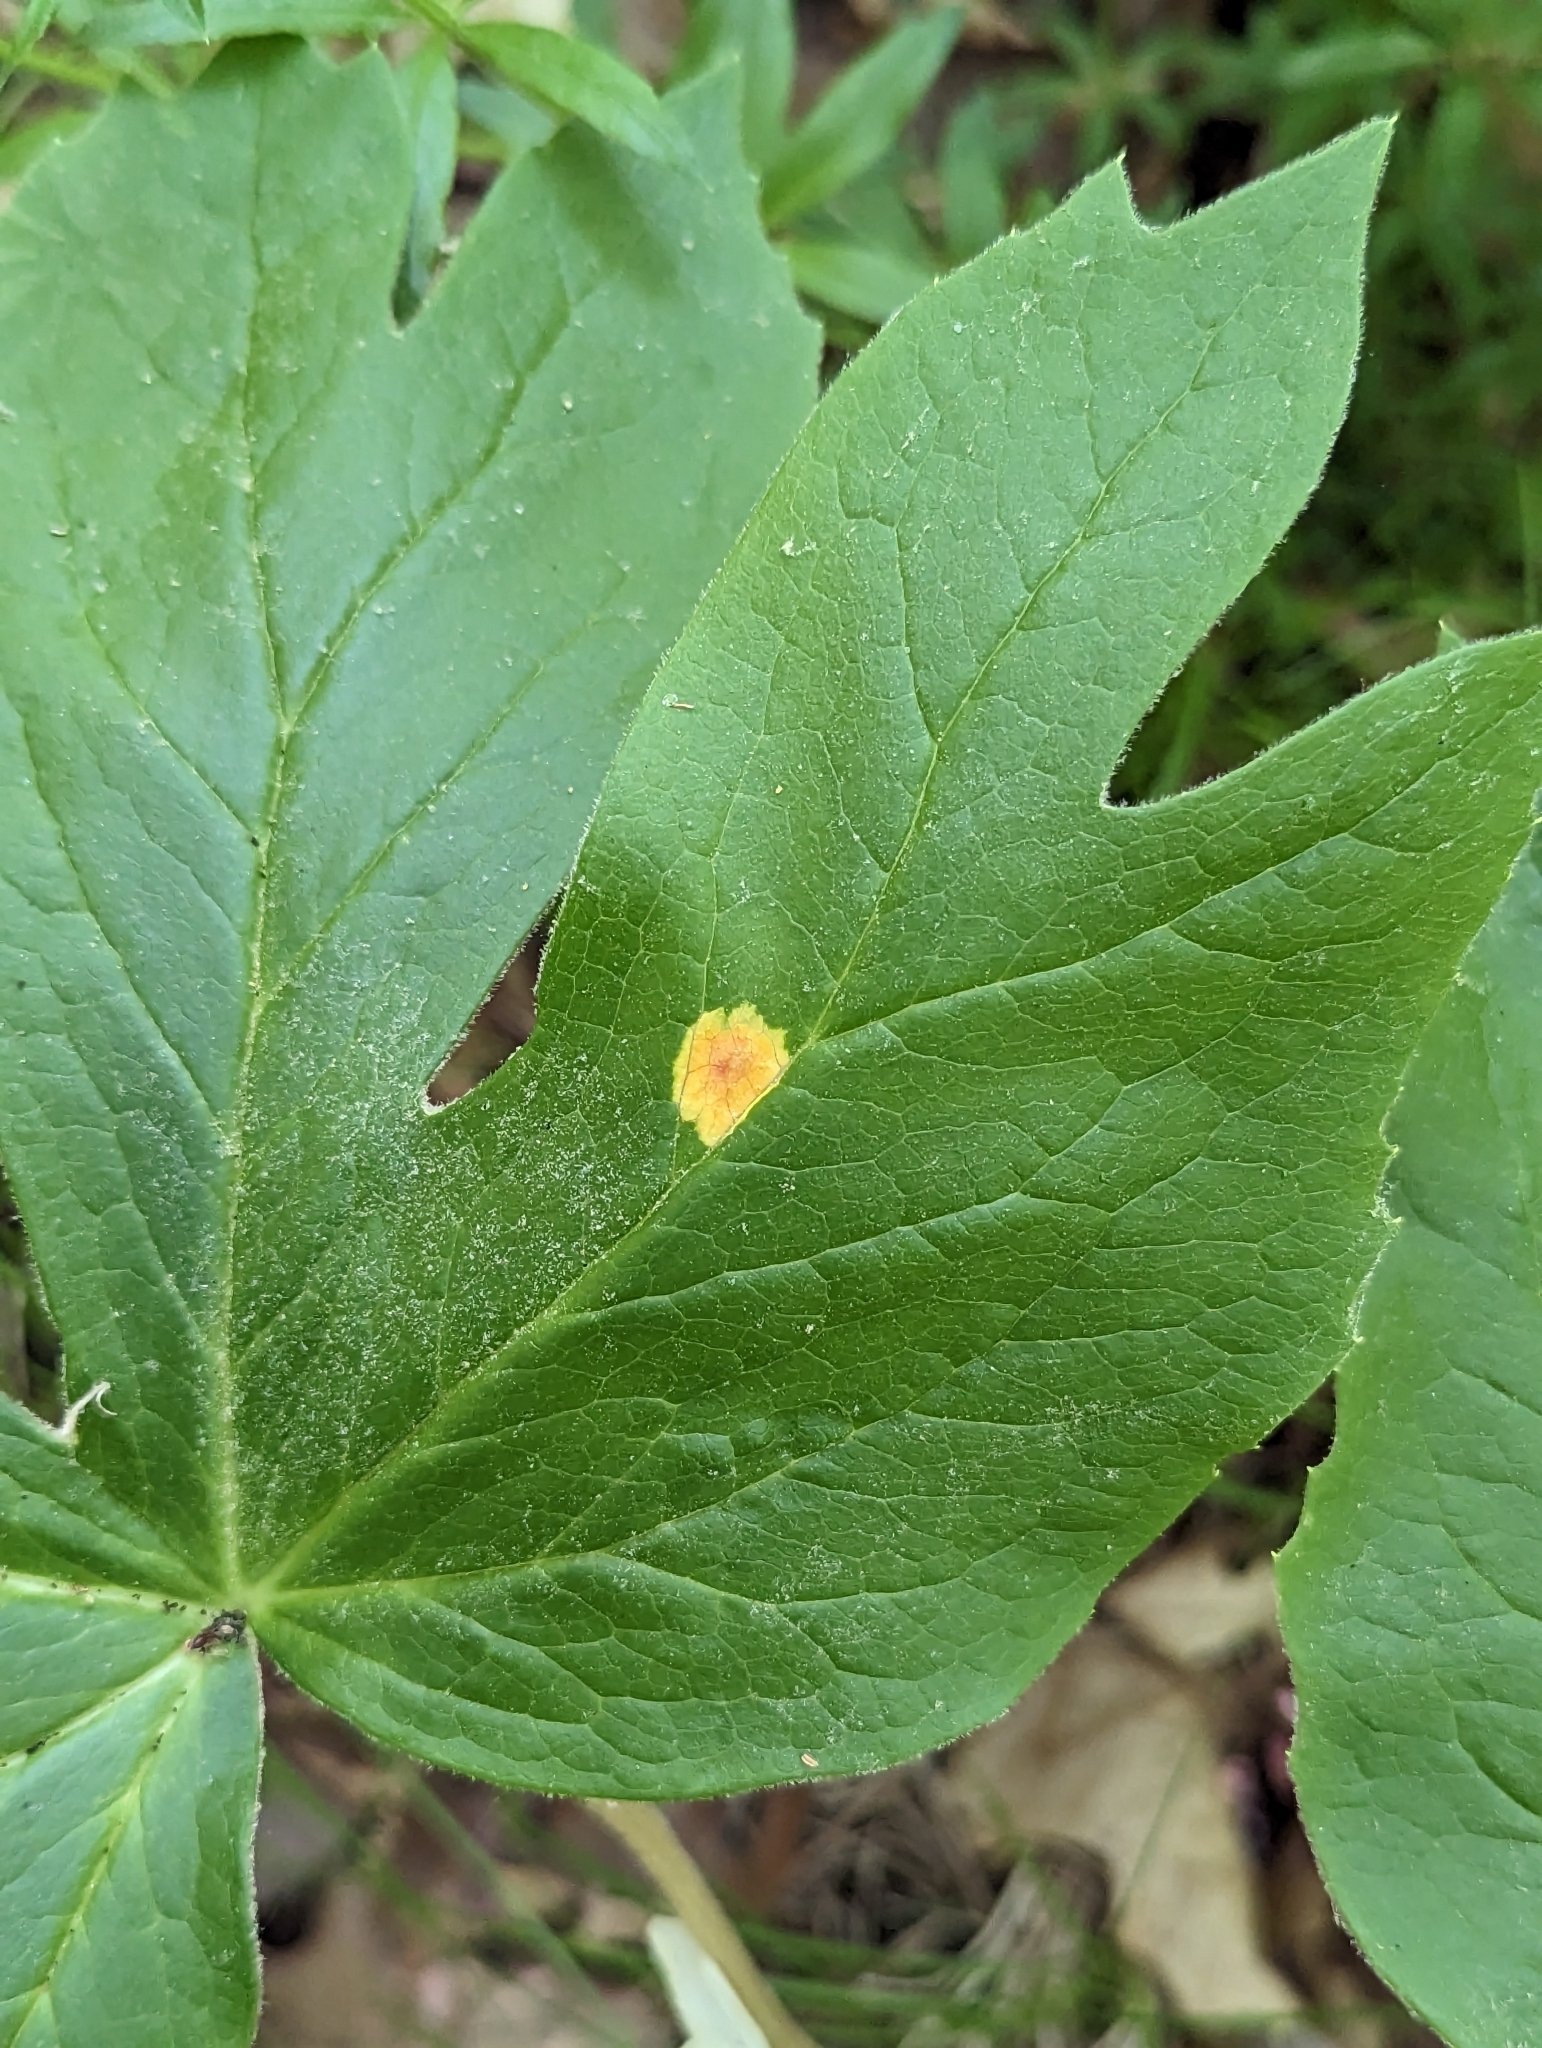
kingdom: Fungi
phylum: Basidiomycota
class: Pucciniomycetes
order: Pucciniales
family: Pucciniaceae
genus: Puccinia
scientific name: Puccinia podophylli
